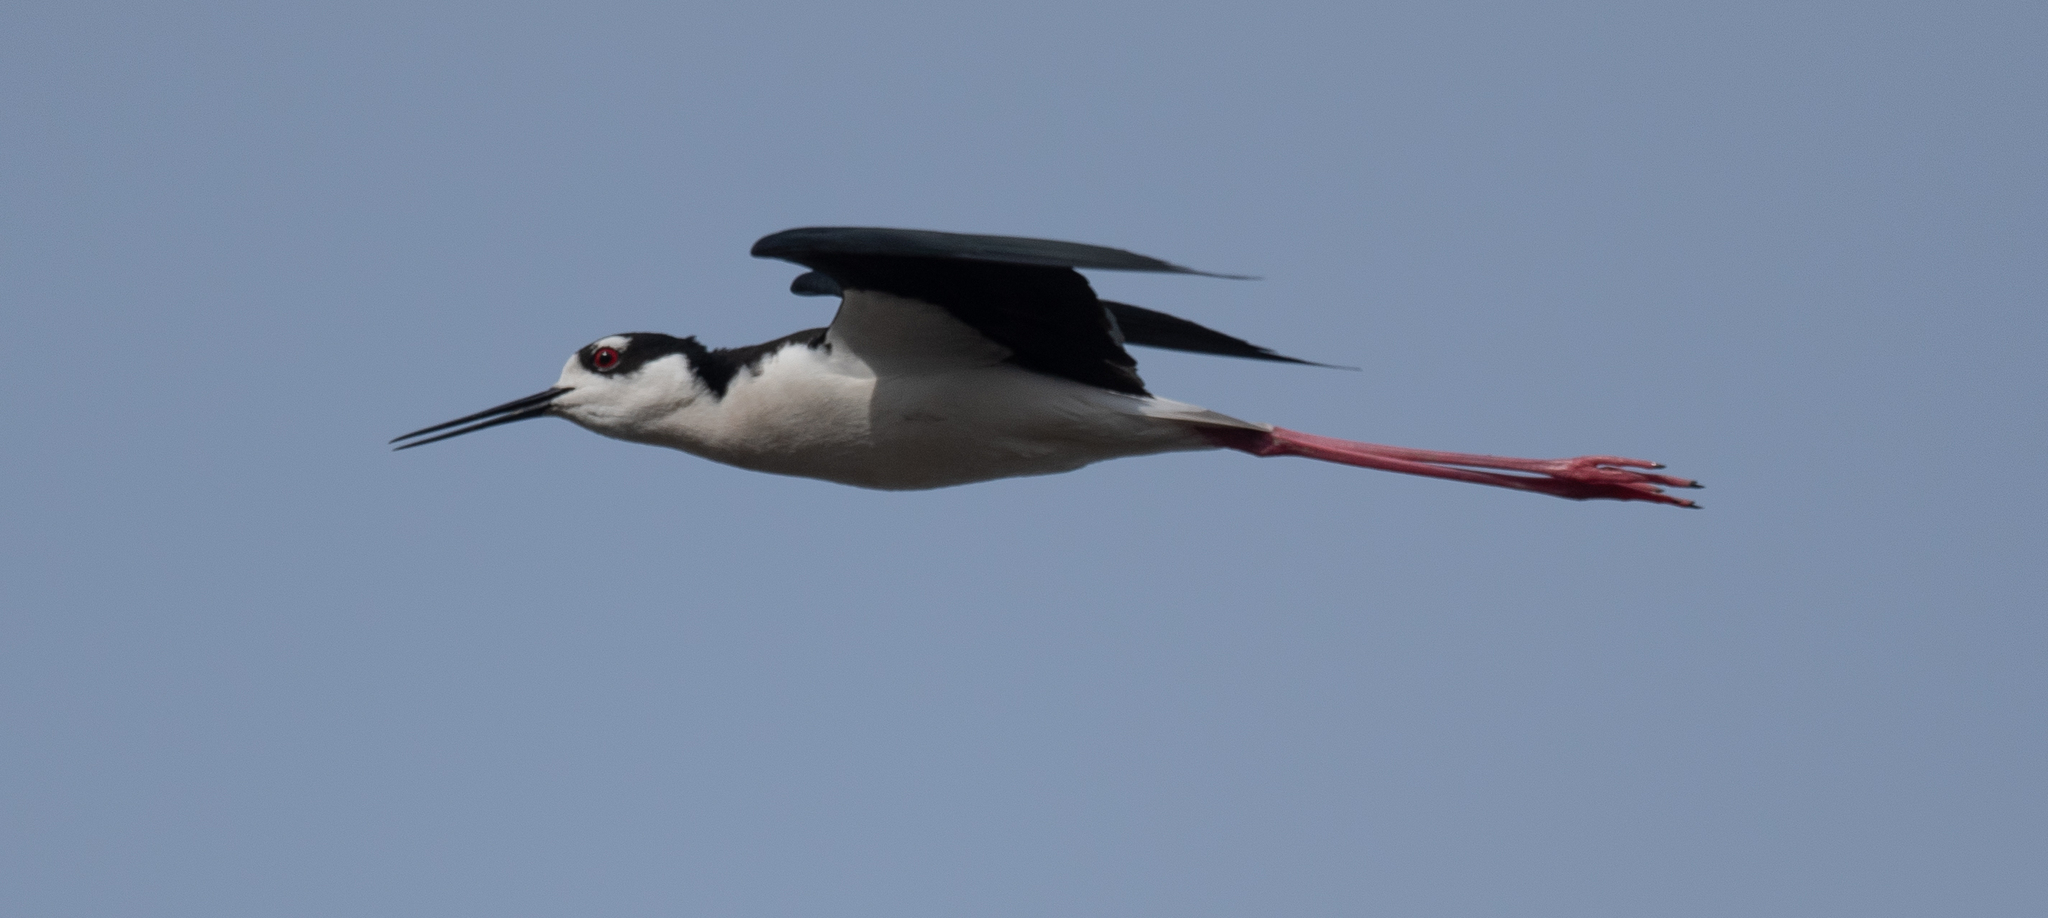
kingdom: Animalia
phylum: Chordata
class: Aves
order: Charadriiformes
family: Recurvirostridae
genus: Himantopus
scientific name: Himantopus mexicanus
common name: Black-necked stilt
